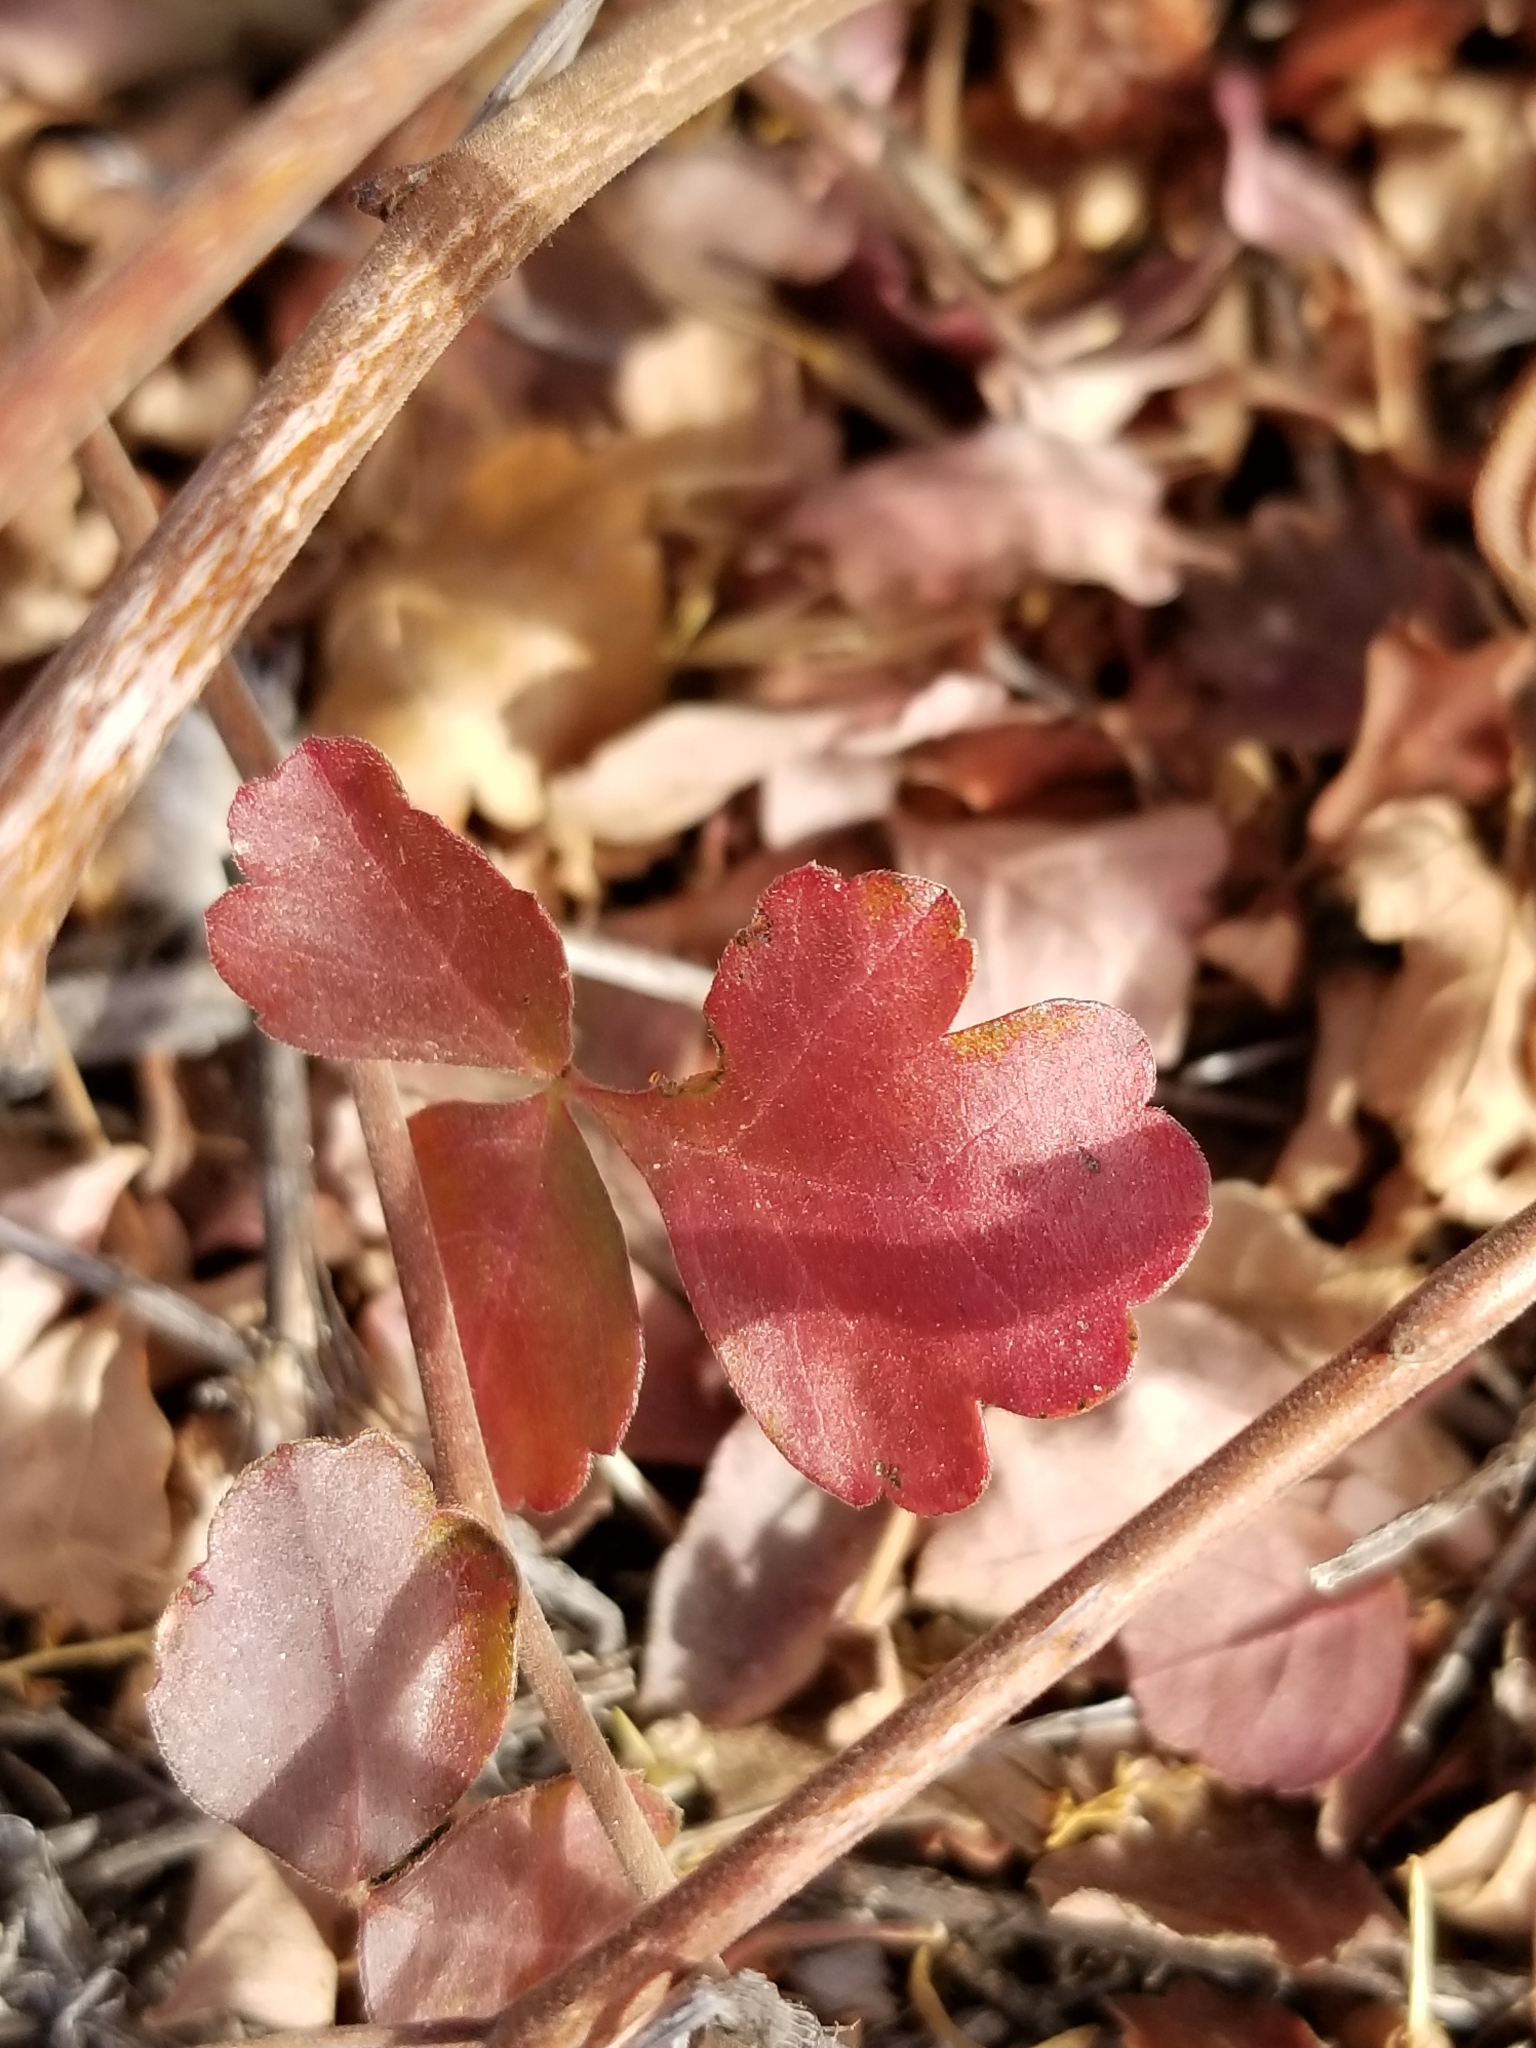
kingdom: Plantae
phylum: Tracheophyta
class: Magnoliopsida
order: Sapindales
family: Anacardiaceae
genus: Rhus
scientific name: Rhus aromatica
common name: Aromatic sumac
